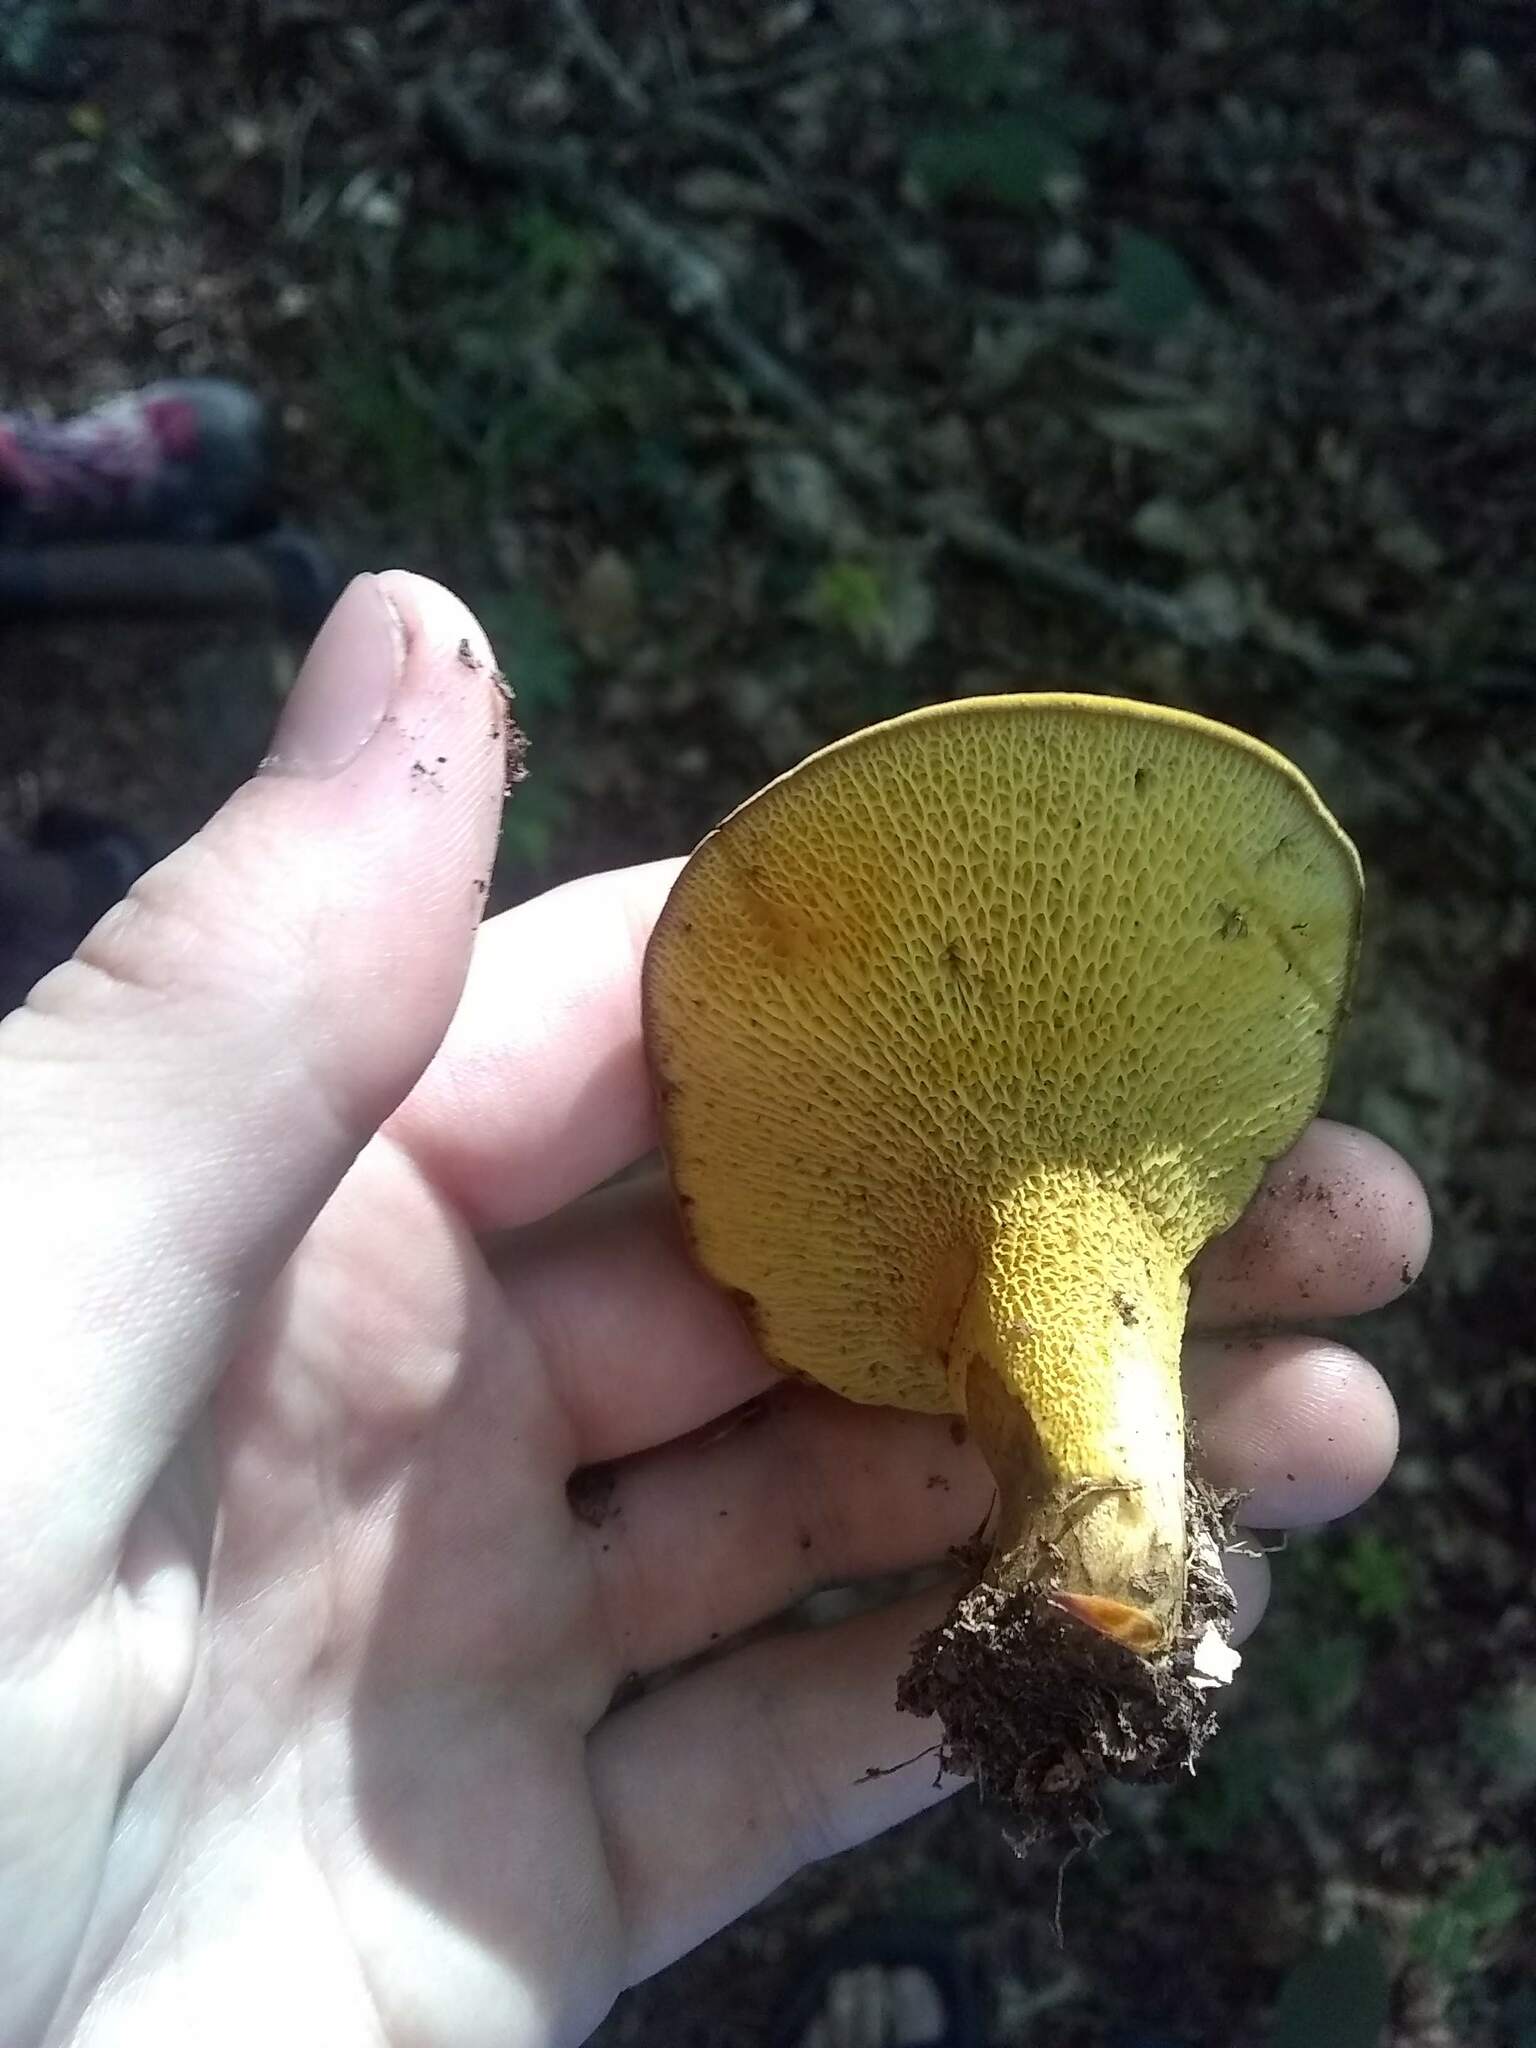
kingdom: Fungi
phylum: Basidiomycota
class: Agaricomycetes
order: Boletales
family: Boletinellaceae
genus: Boletinellus
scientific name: Boletinellus merulioides
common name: Ash tree bolete
